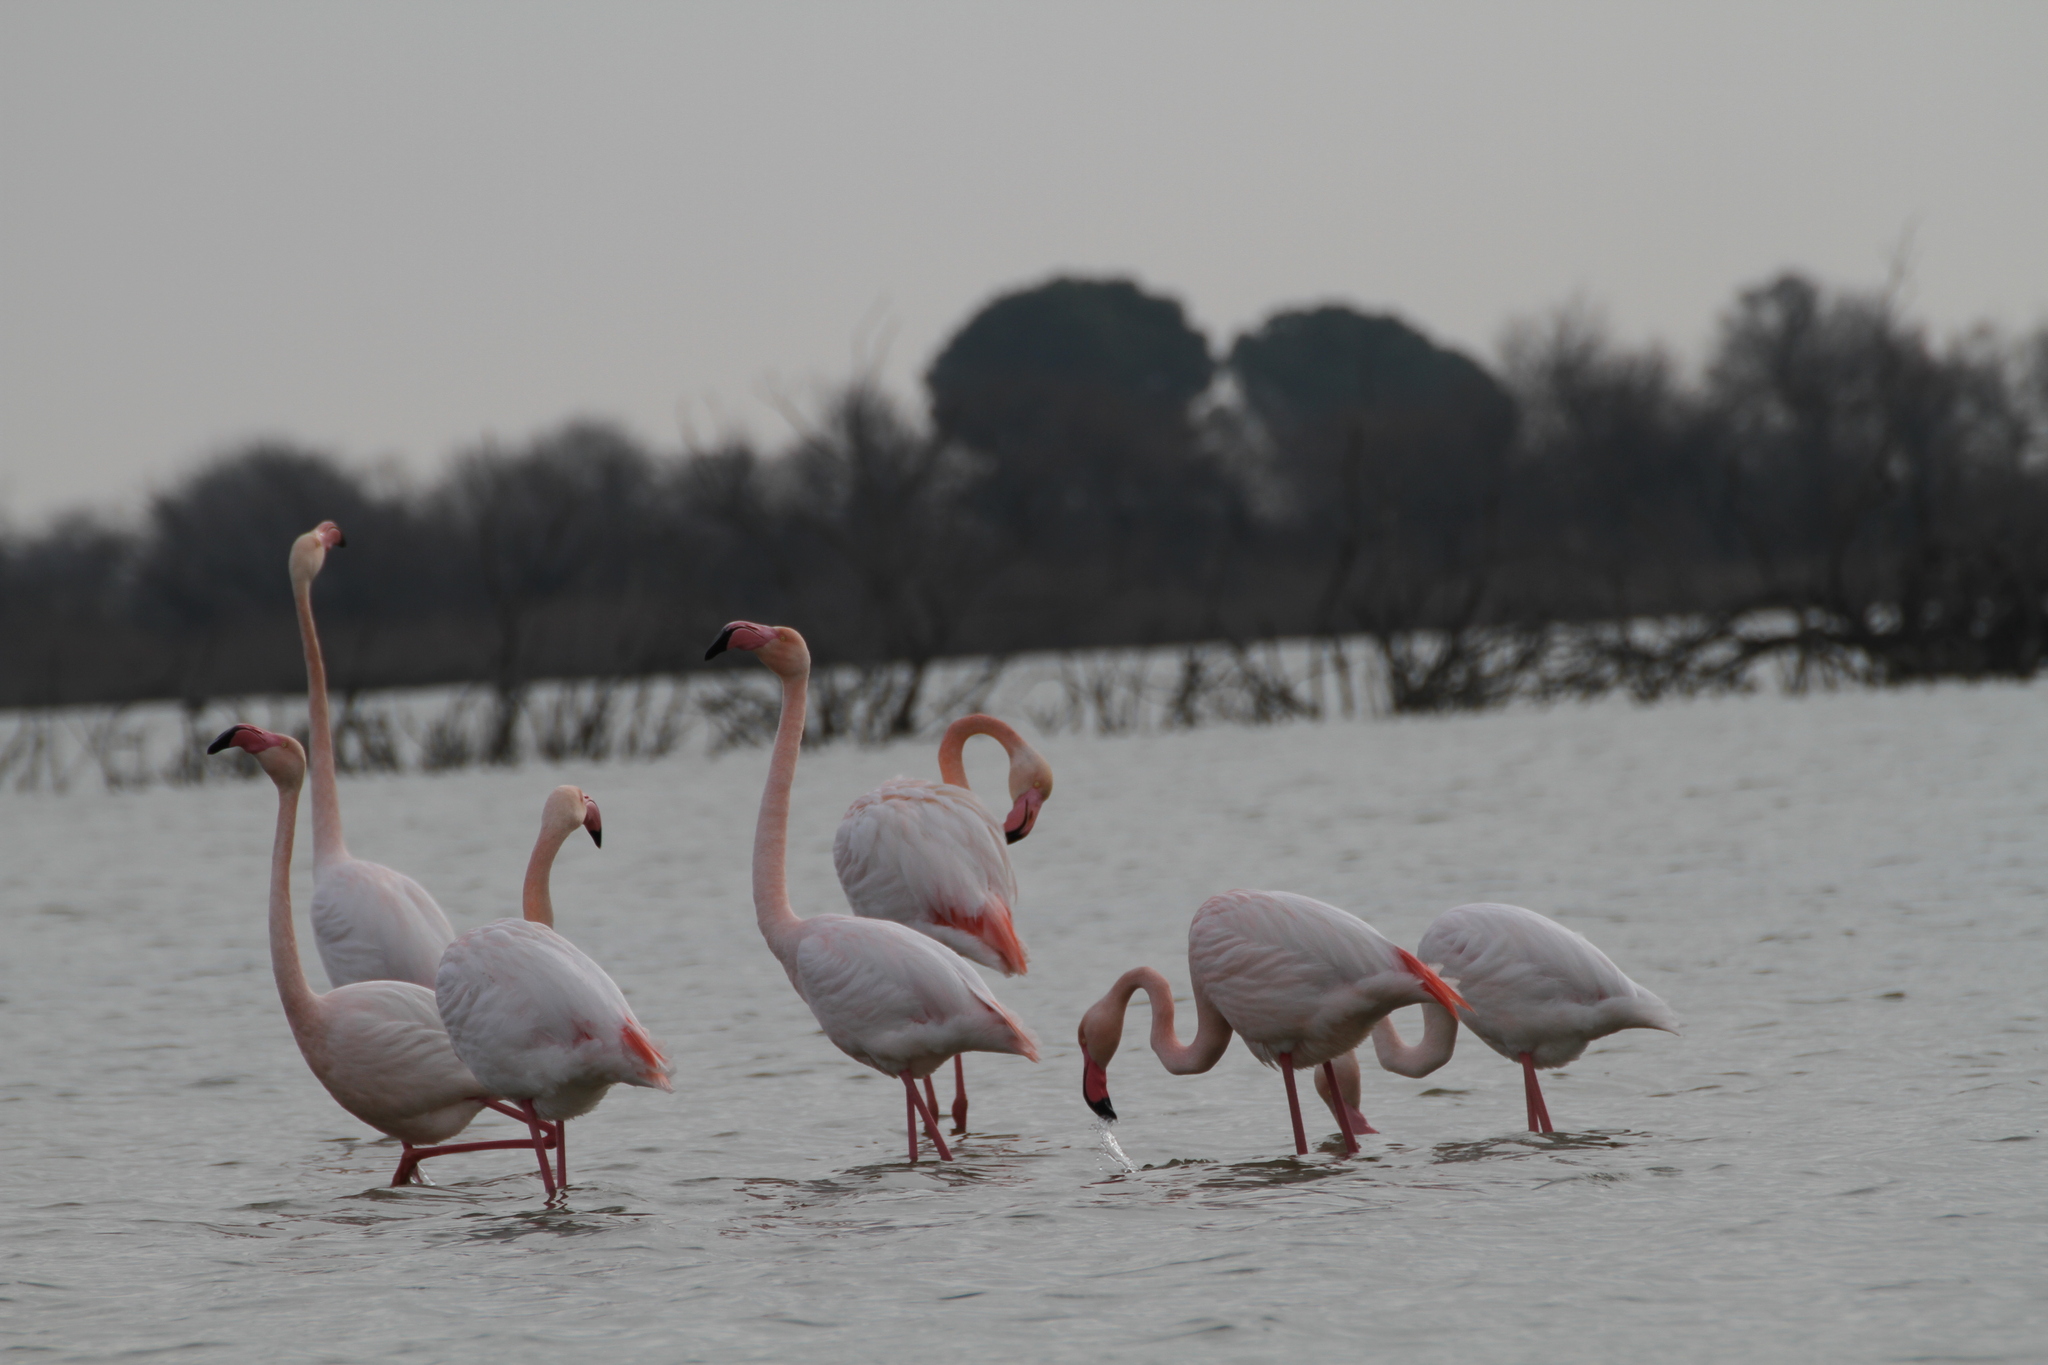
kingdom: Animalia
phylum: Chordata
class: Aves
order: Phoenicopteriformes
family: Phoenicopteridae
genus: Phoenicopterus
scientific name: Phoenicopterus roseus
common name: Greater flamingo
